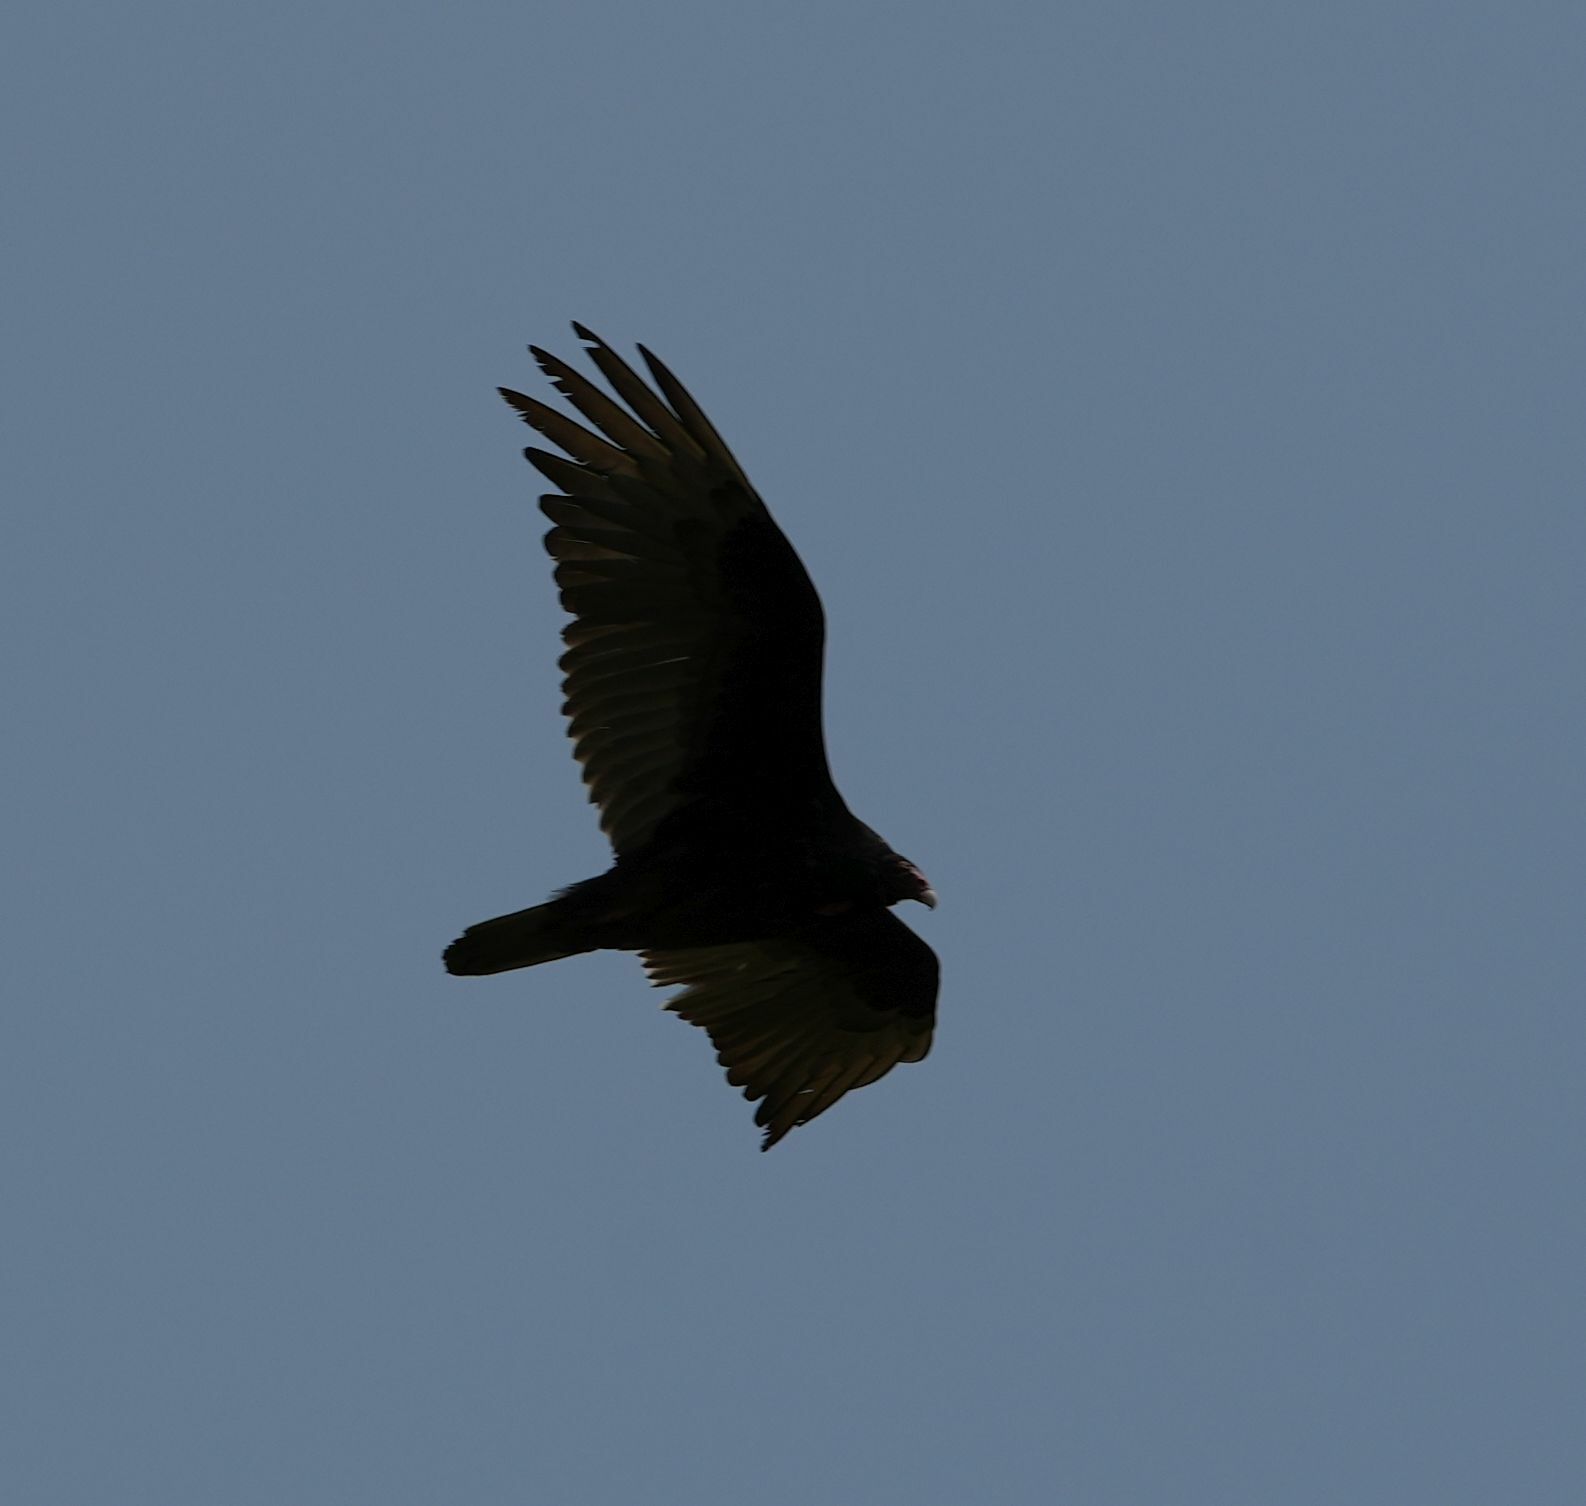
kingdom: Animalia
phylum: Chordata
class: Aves
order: Accipitriformes
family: Cathartidae
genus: Cathartes
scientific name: Cathartes aura
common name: Turkey vulture
